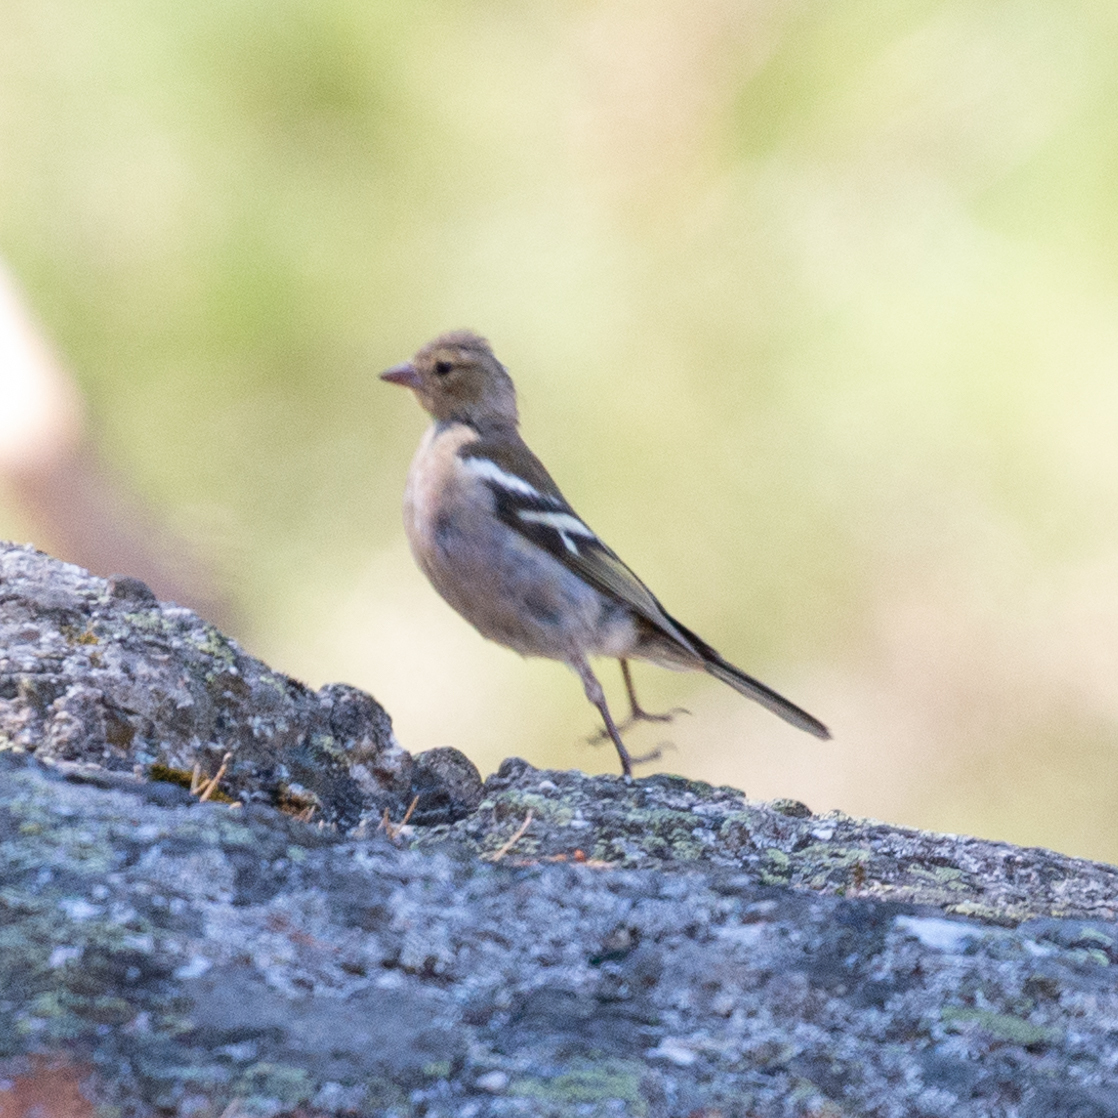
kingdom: Animalia
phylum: Chordata
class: Aves
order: Passeriformes
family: Fringillidae
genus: Fringilla
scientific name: Fringilla coelebs
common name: Common chaffinch
